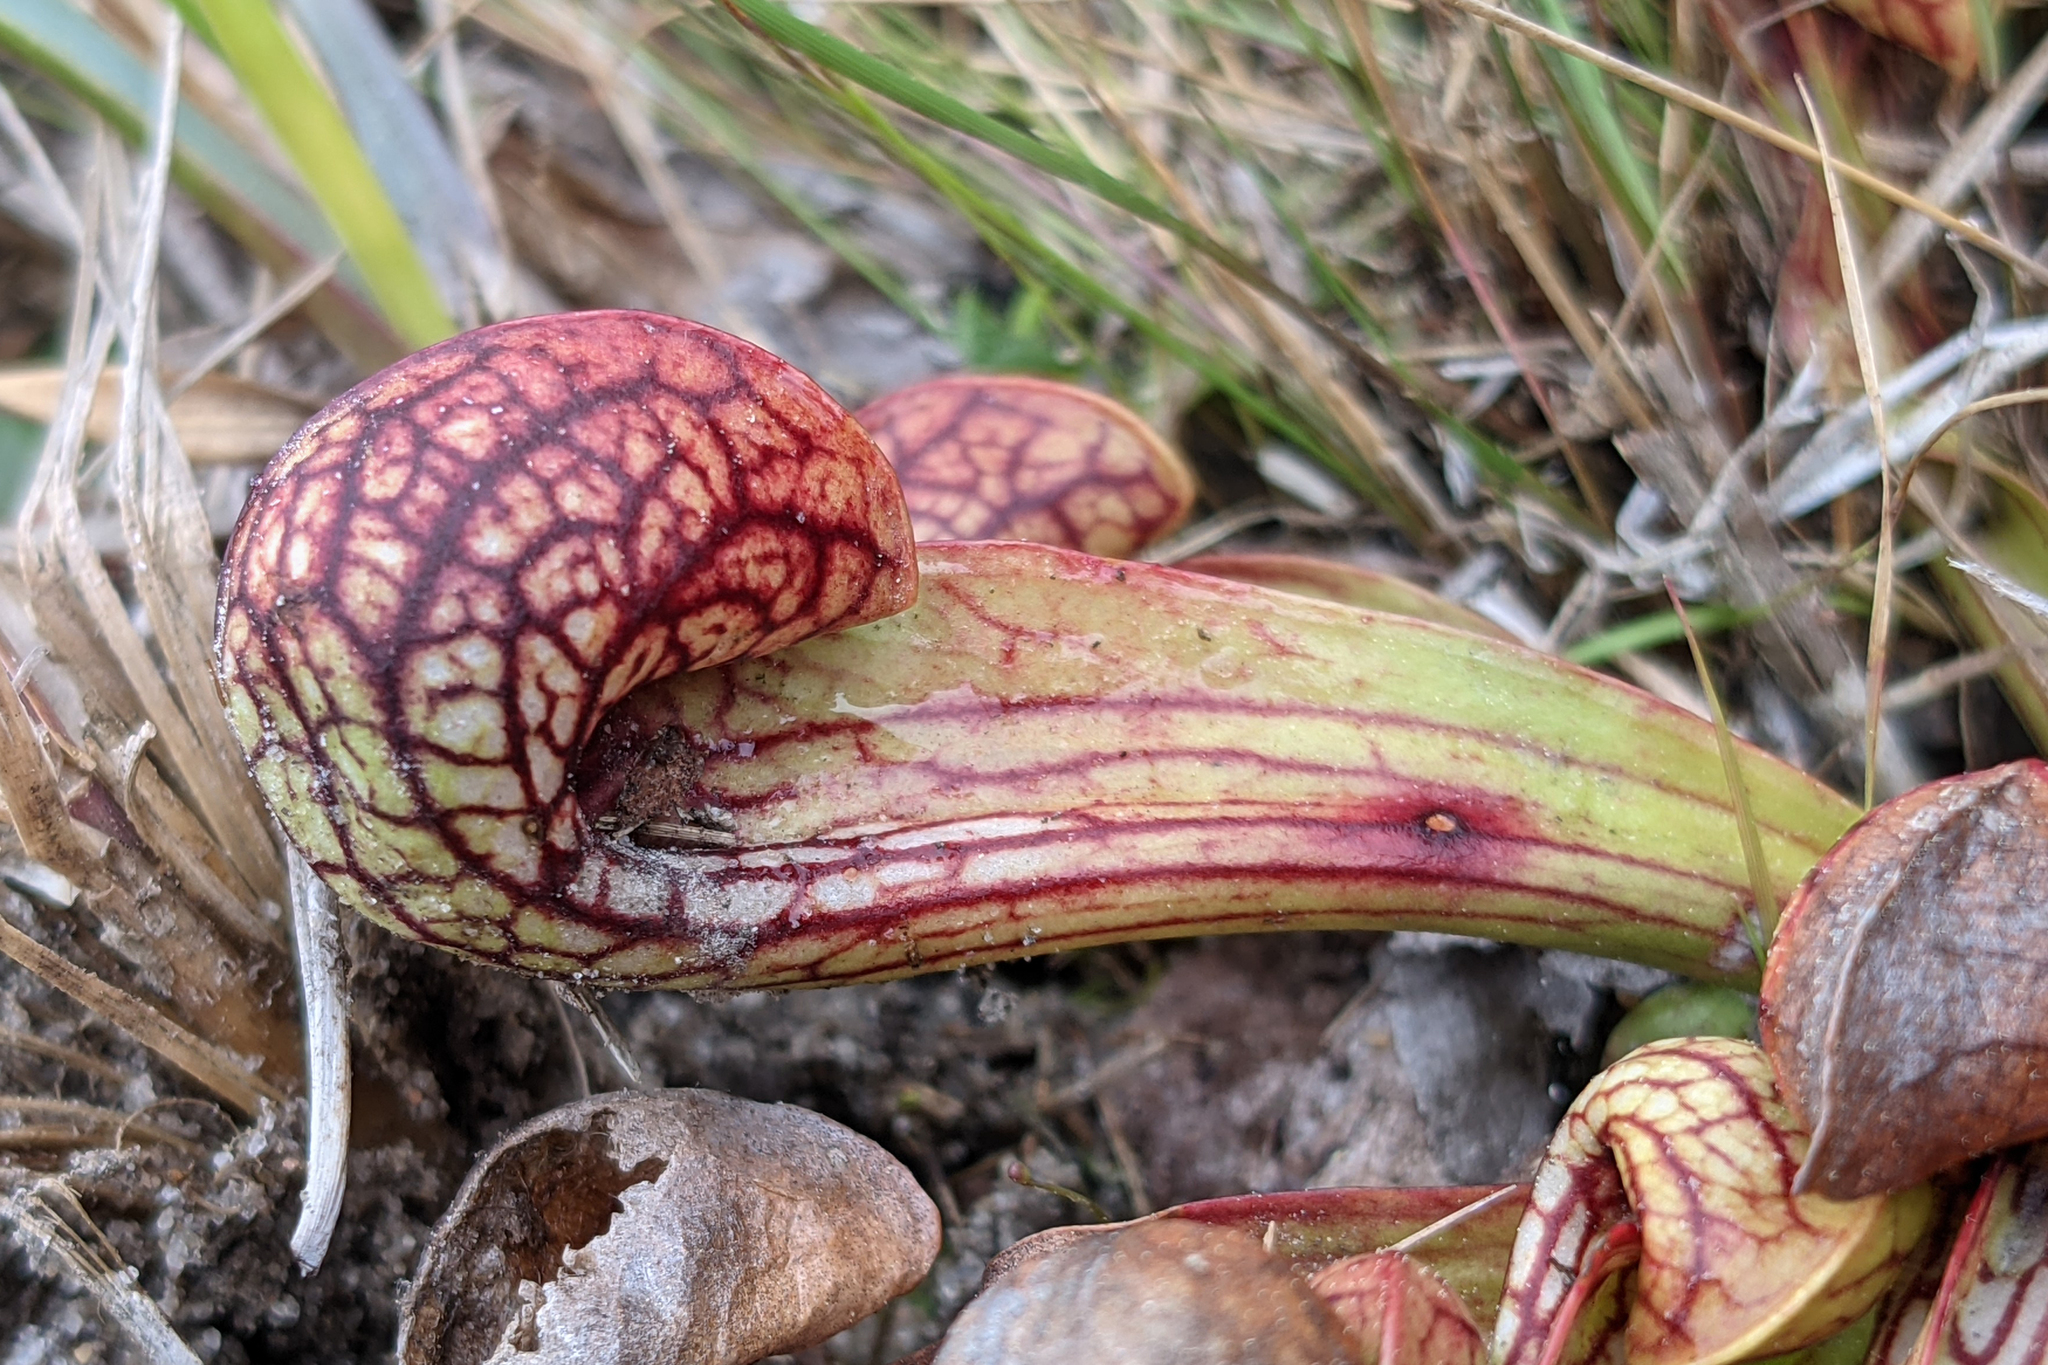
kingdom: Plantae
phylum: Tracheophyta
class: Magnoliopsida
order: Ericales
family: Sarraceniaceae
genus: Sarracenia
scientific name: Sarracenia psittacina
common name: Parrot pitcherplant
